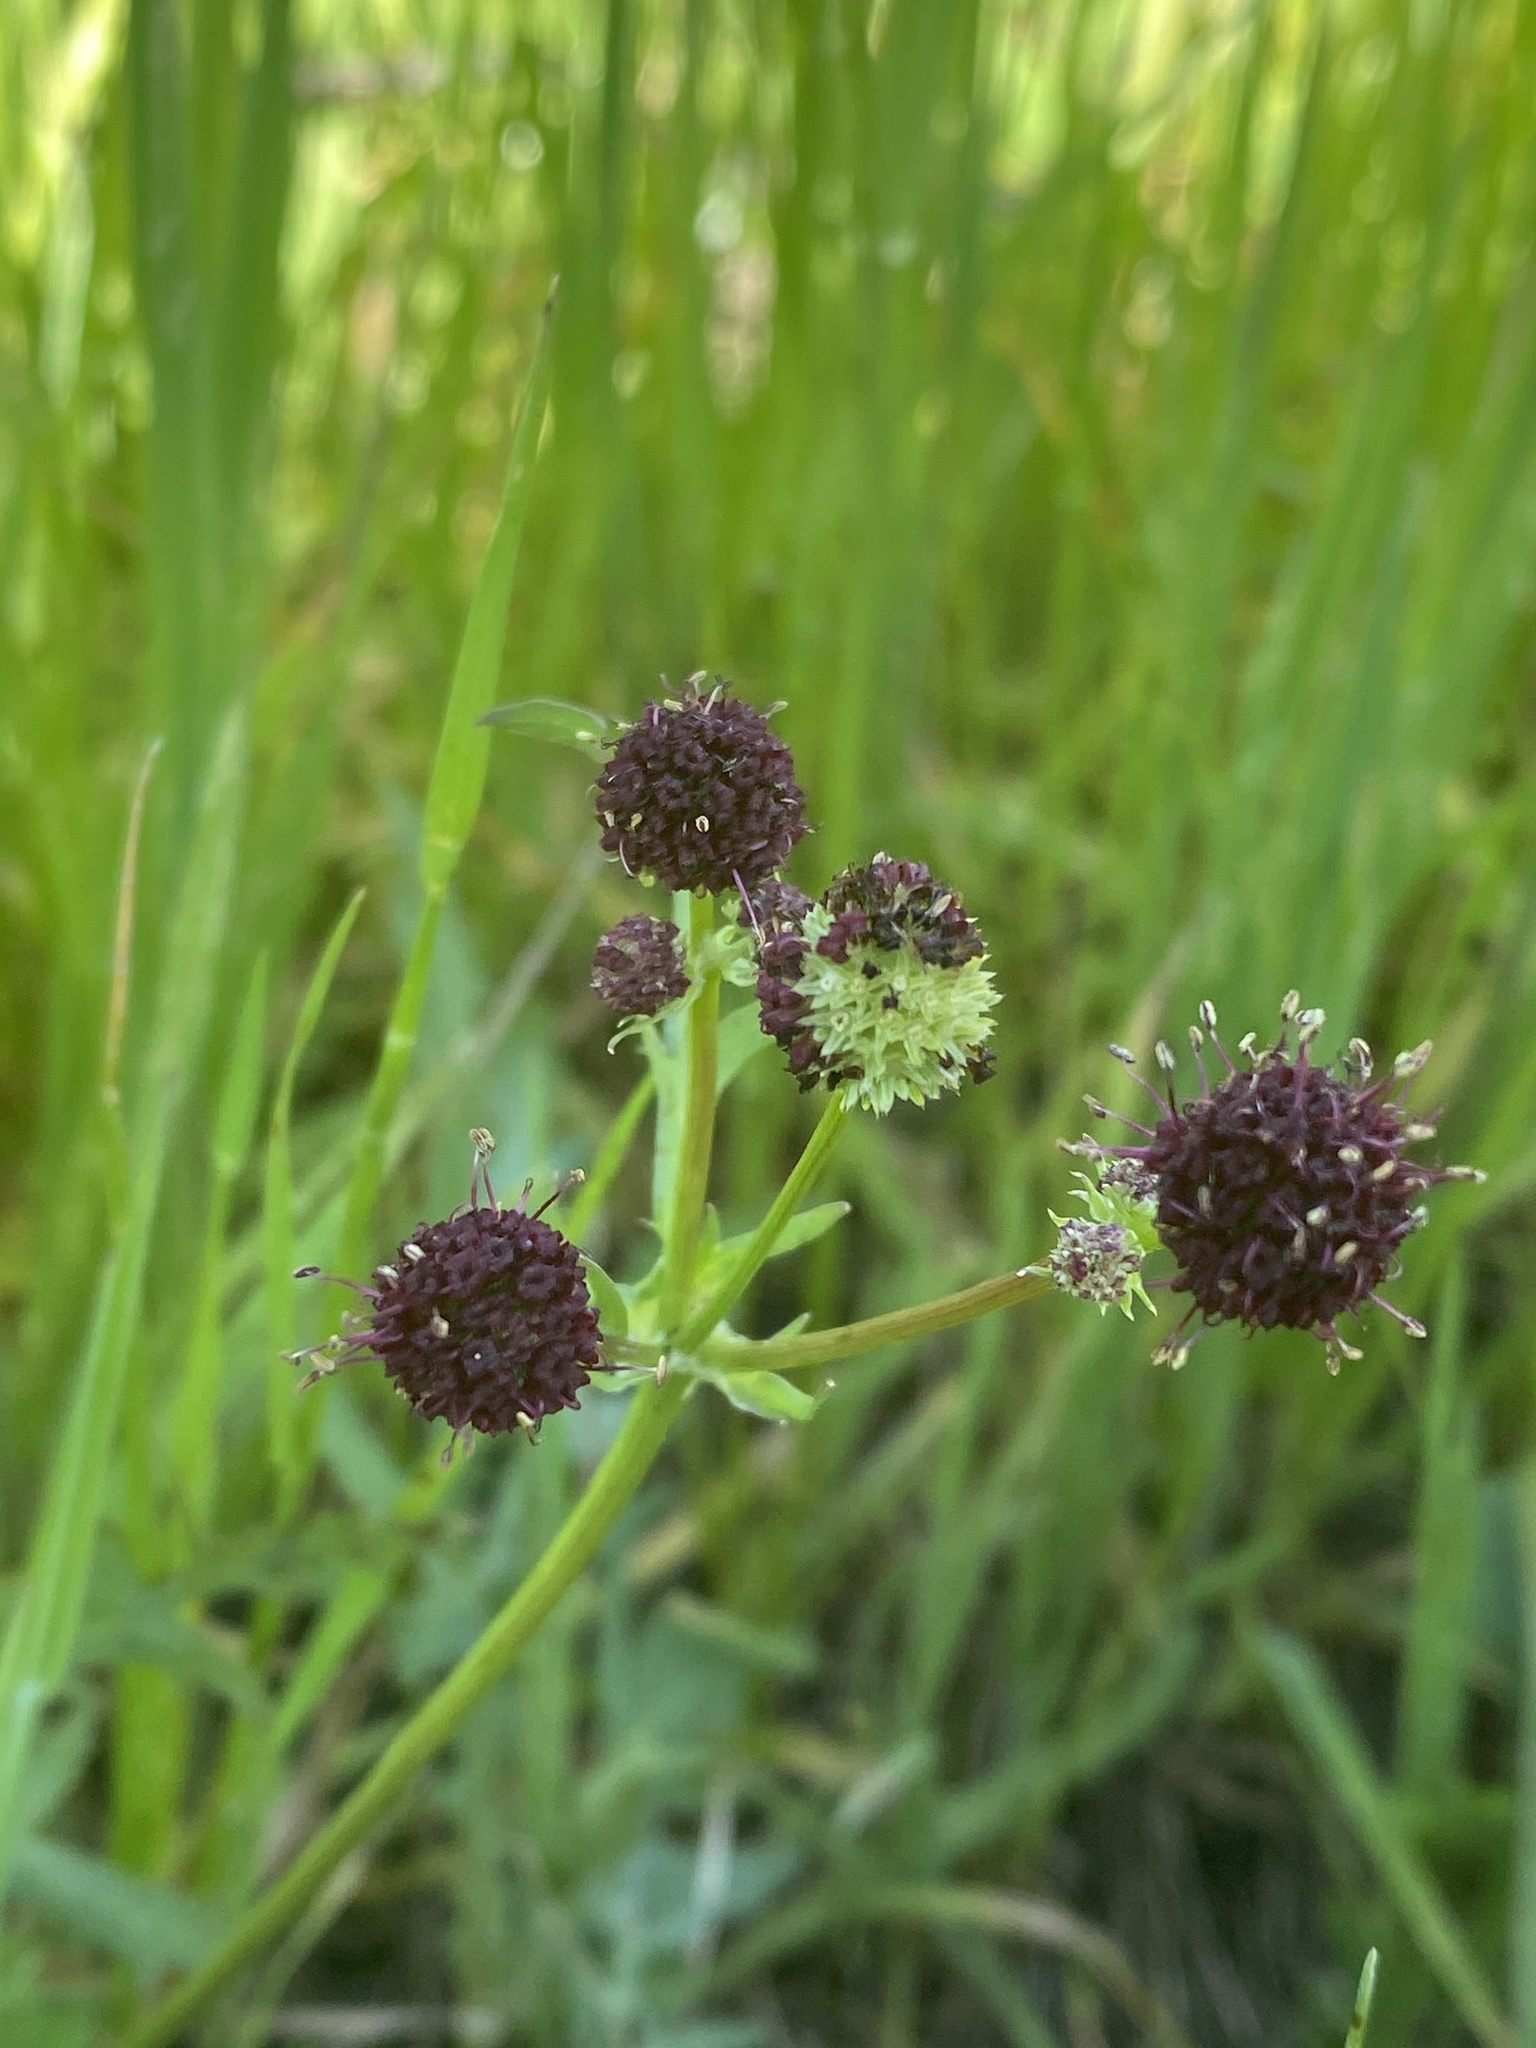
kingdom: Plantae
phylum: Tracheophyta
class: Magnoliopsida
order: Apiales
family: Apiaceae
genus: Sanicula
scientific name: Sanicula bipinnatifida
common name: Shoe-buttons
